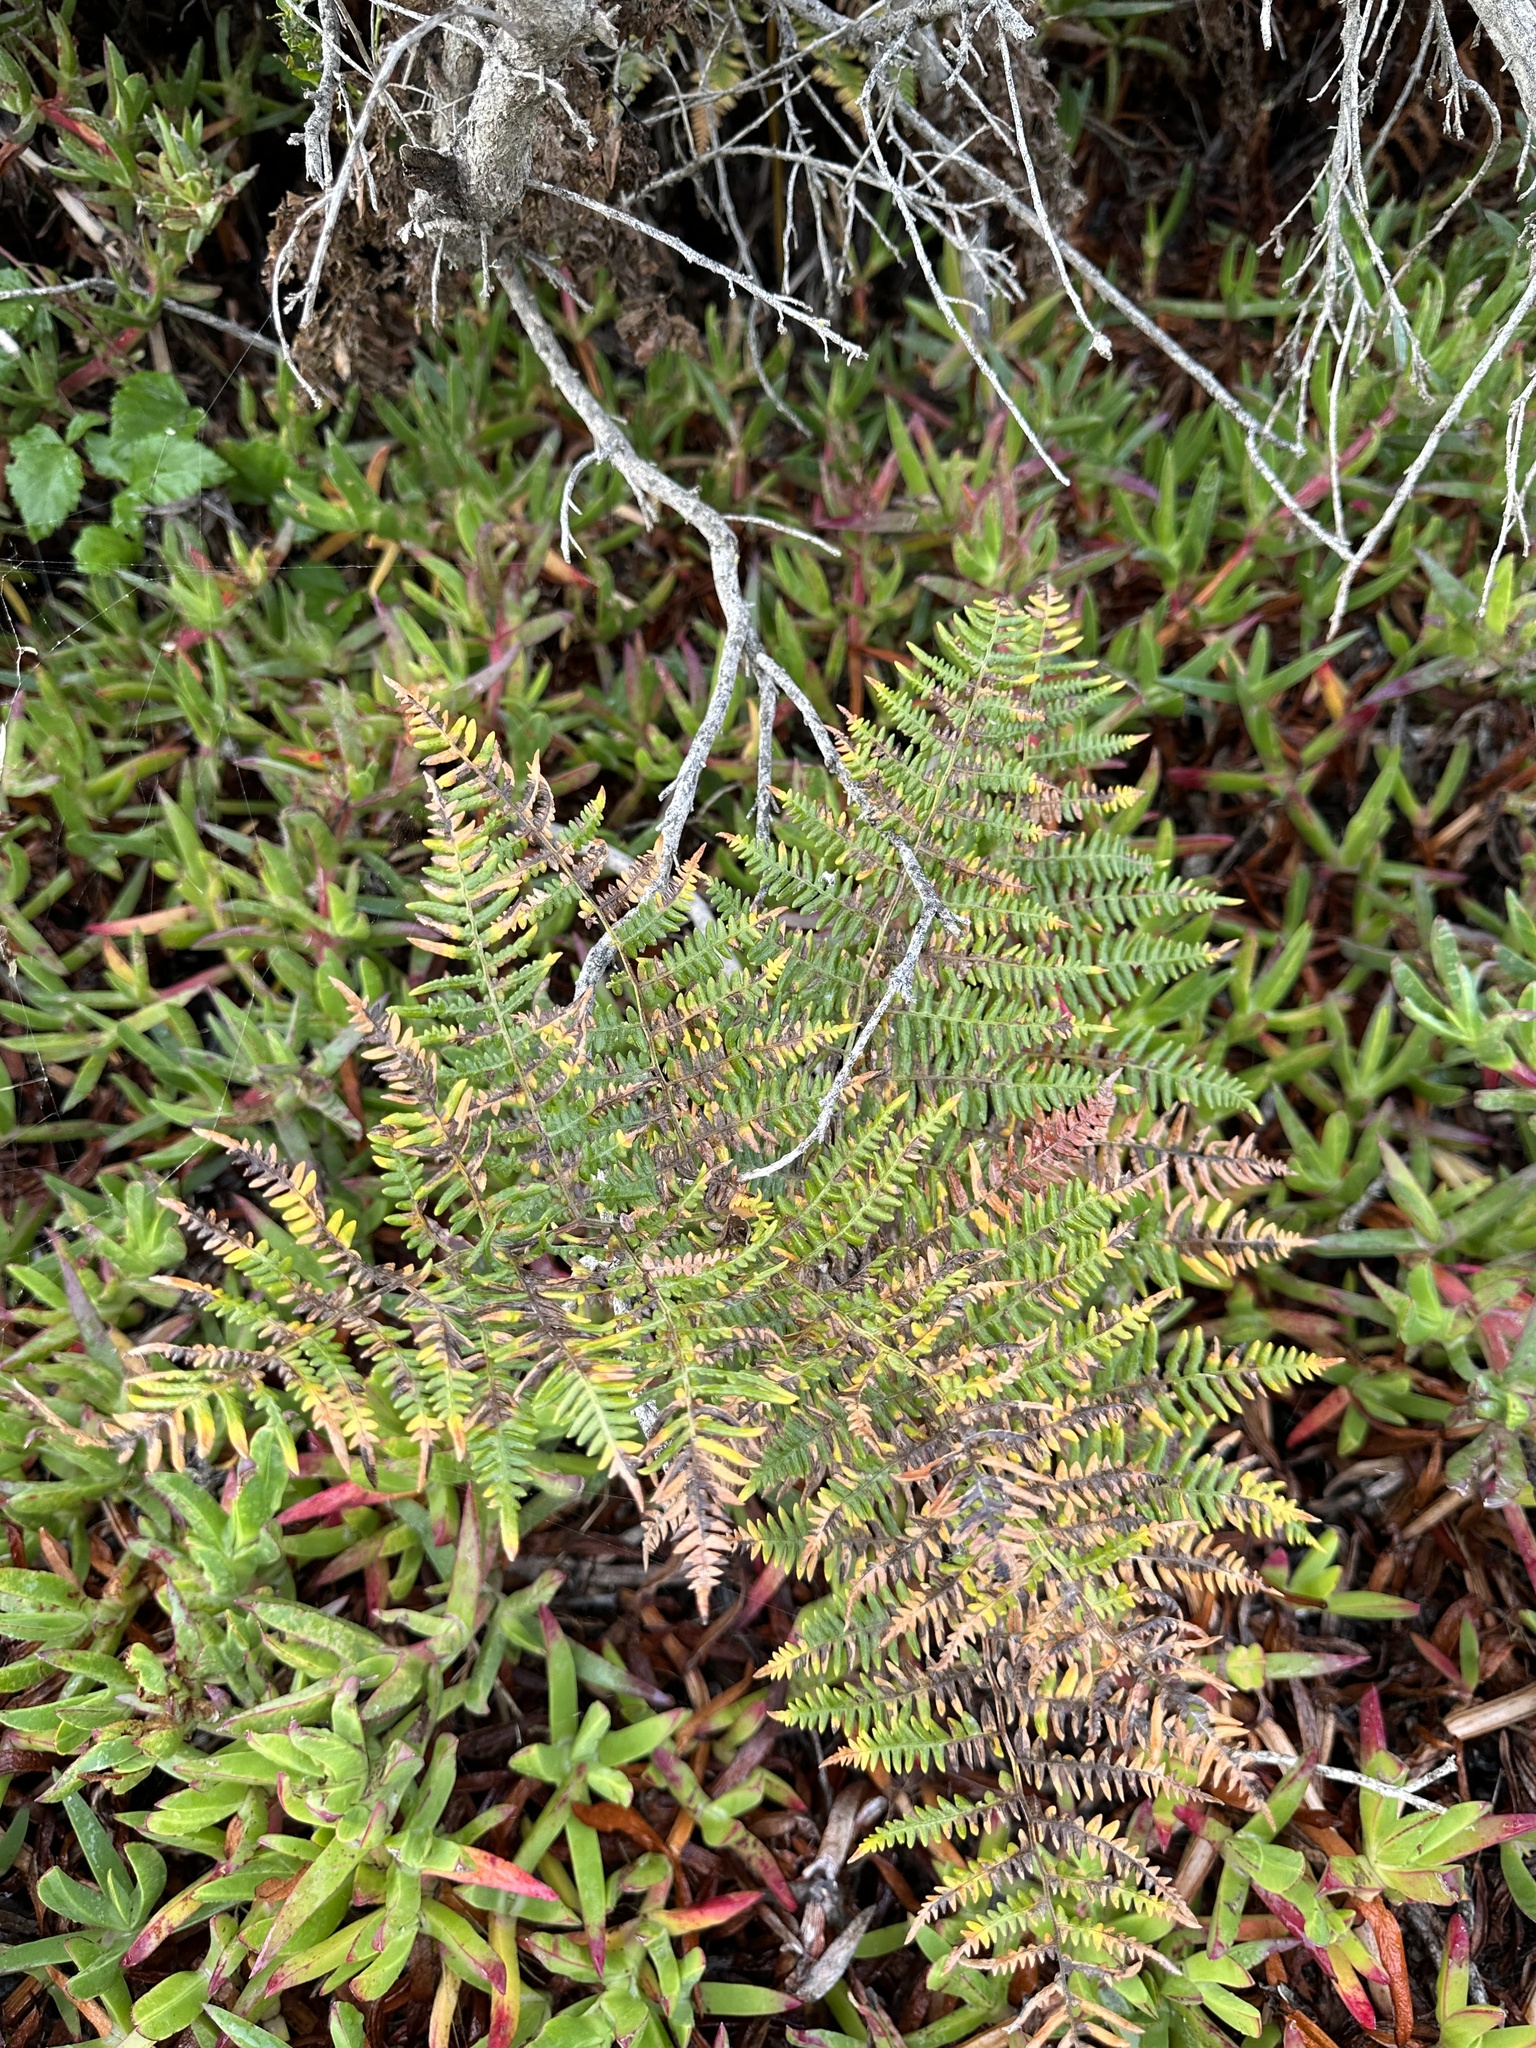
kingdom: Plantae
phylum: Tracheophyta
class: Polypodiopsida
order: Polypodiales
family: Dennstaedtiaceae
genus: Pteridium
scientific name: Pteridium aquilinum
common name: Bracken
